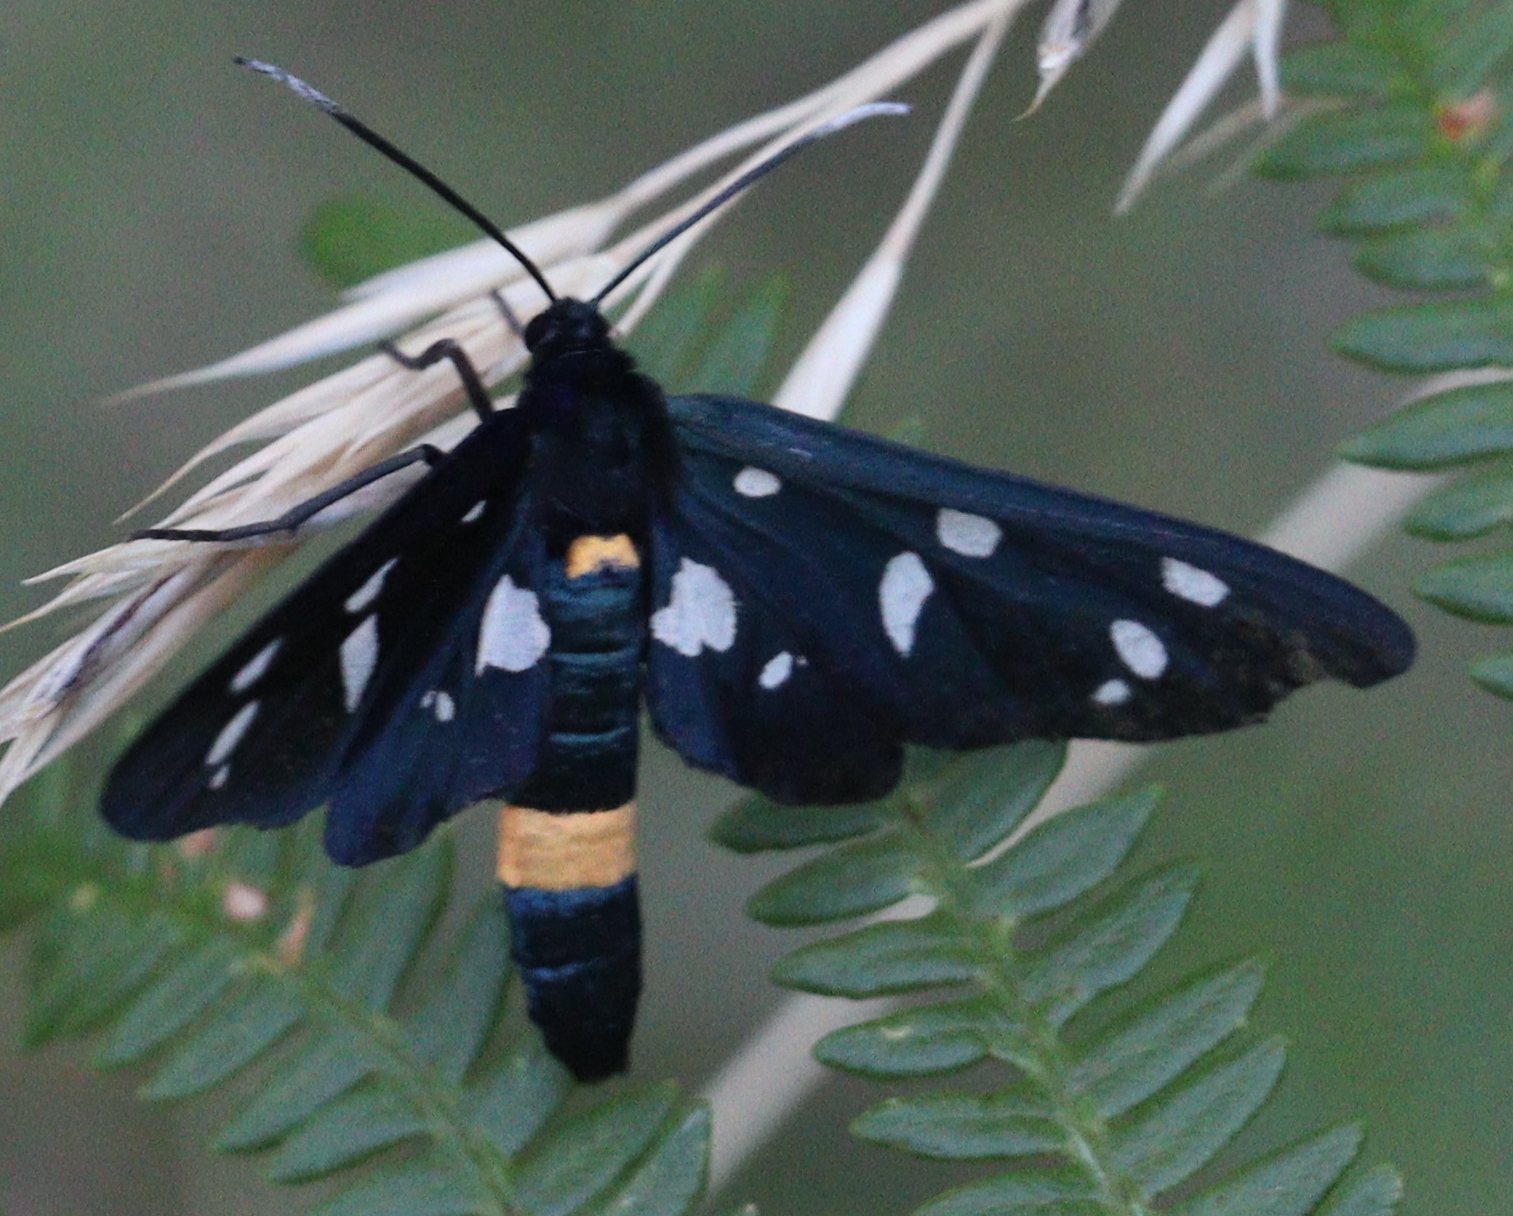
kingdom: Animalia
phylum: Arthropoda
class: Insecta
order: Lepidoptera
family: Erebidae
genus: Amata
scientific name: Amata ragazzii
